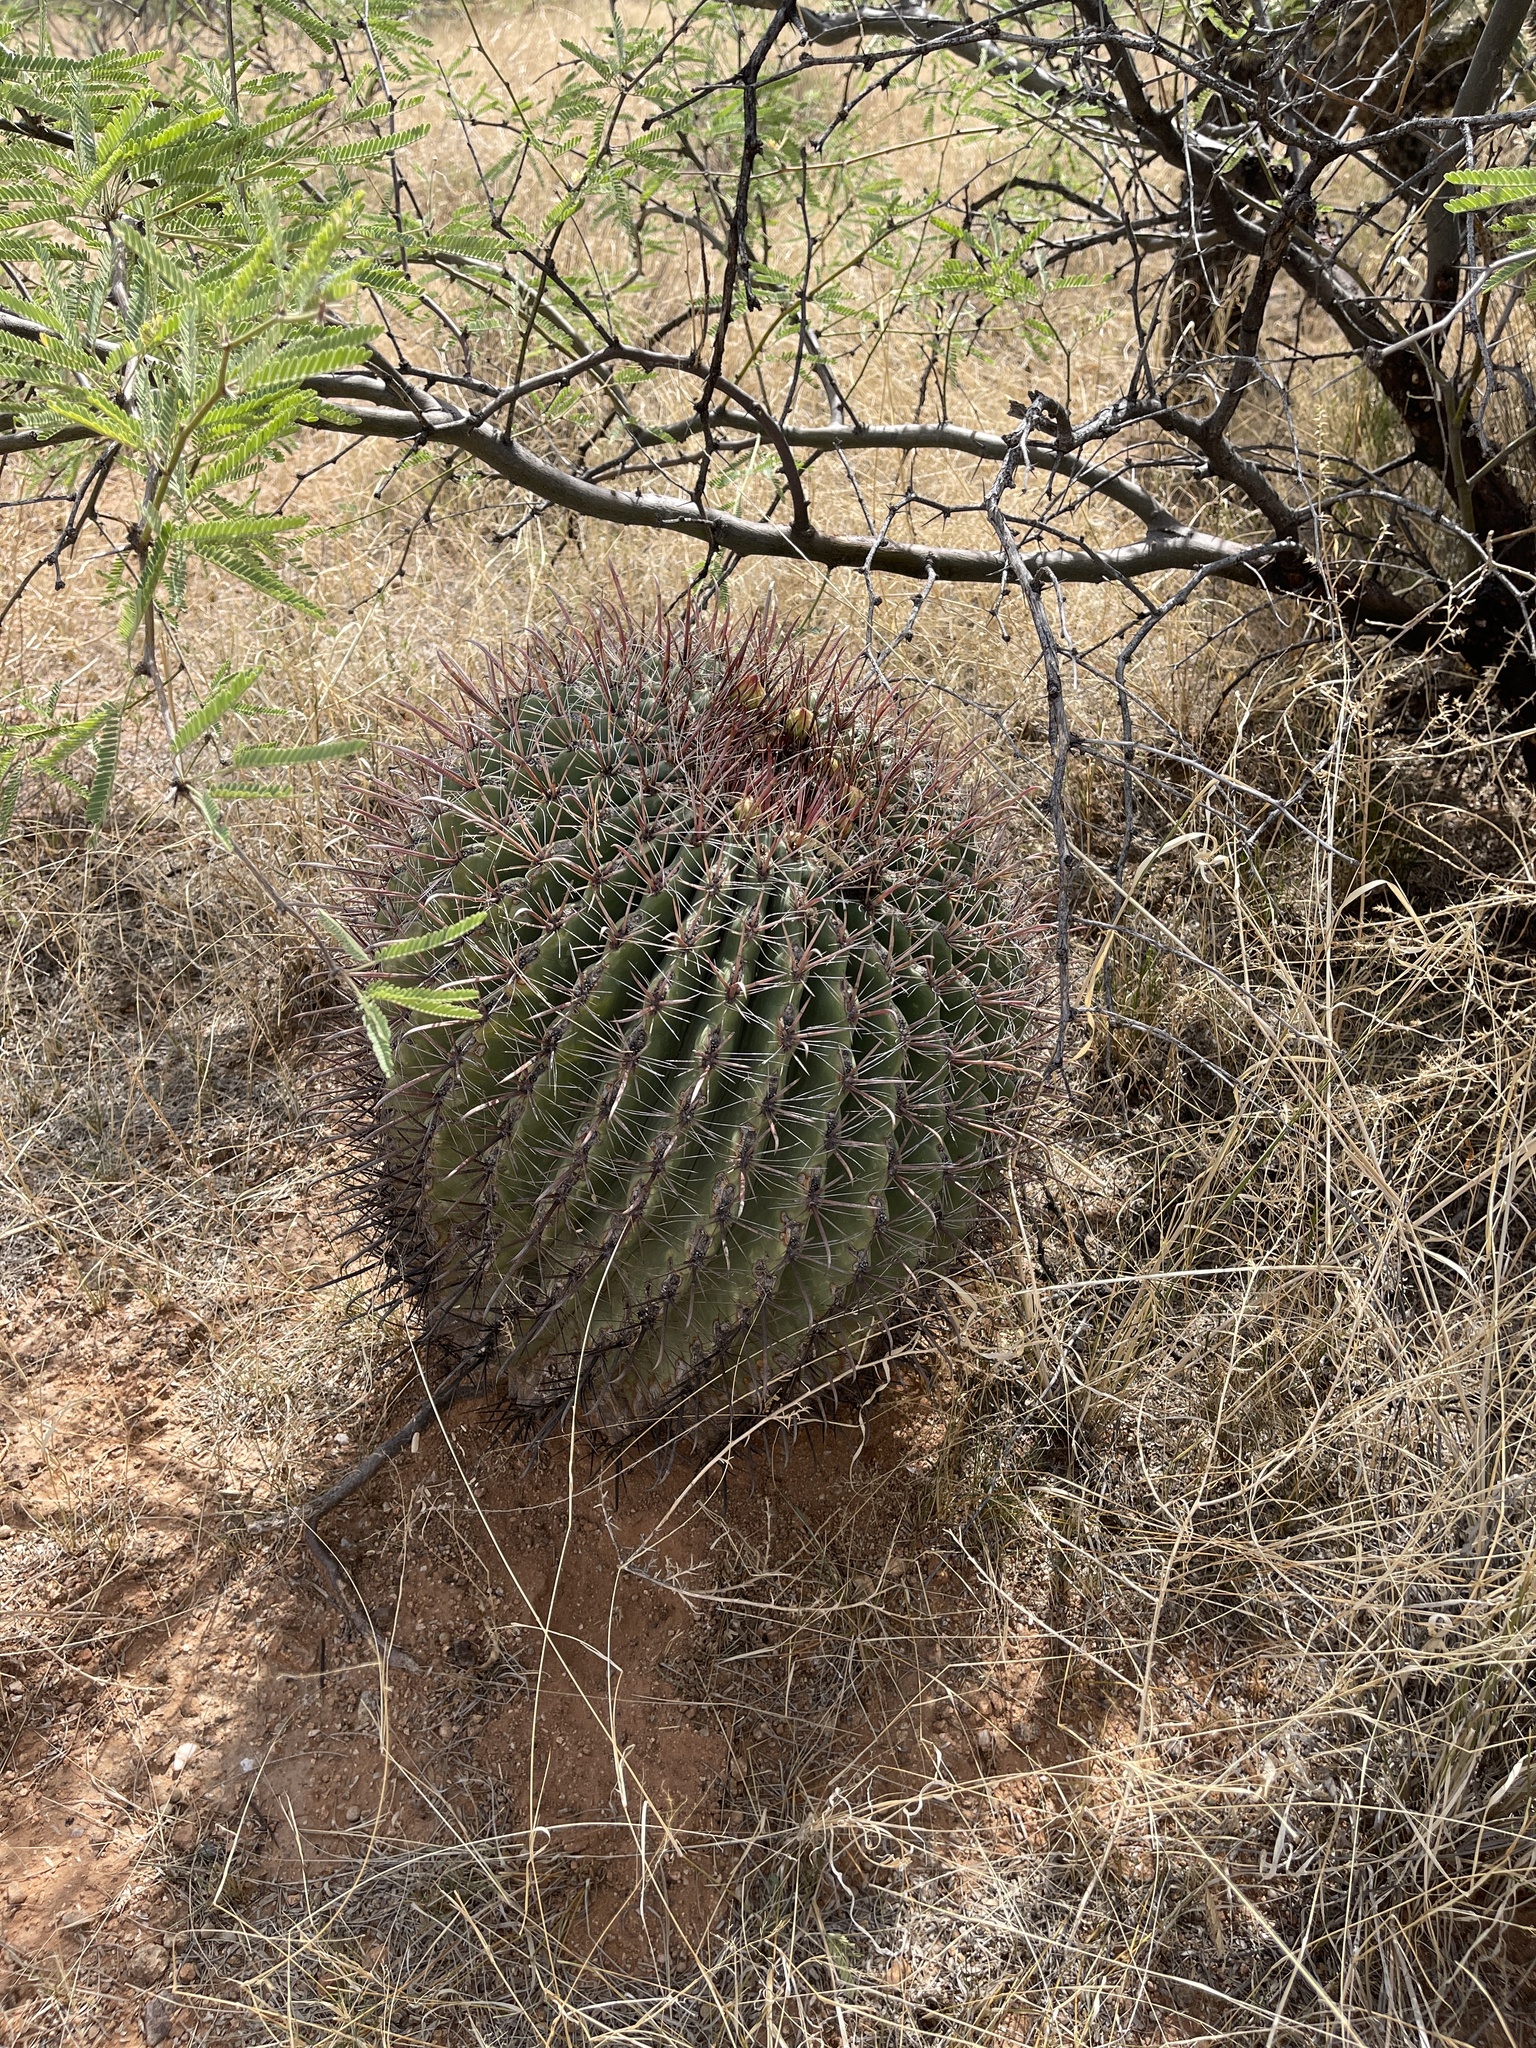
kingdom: Plantae
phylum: Tracheophyta
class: Magnoliopsida
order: Caryophyllales
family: Cactaceae
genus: Ferocactus
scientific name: Ferocactus wislizeni
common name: Candy barrel cactus
